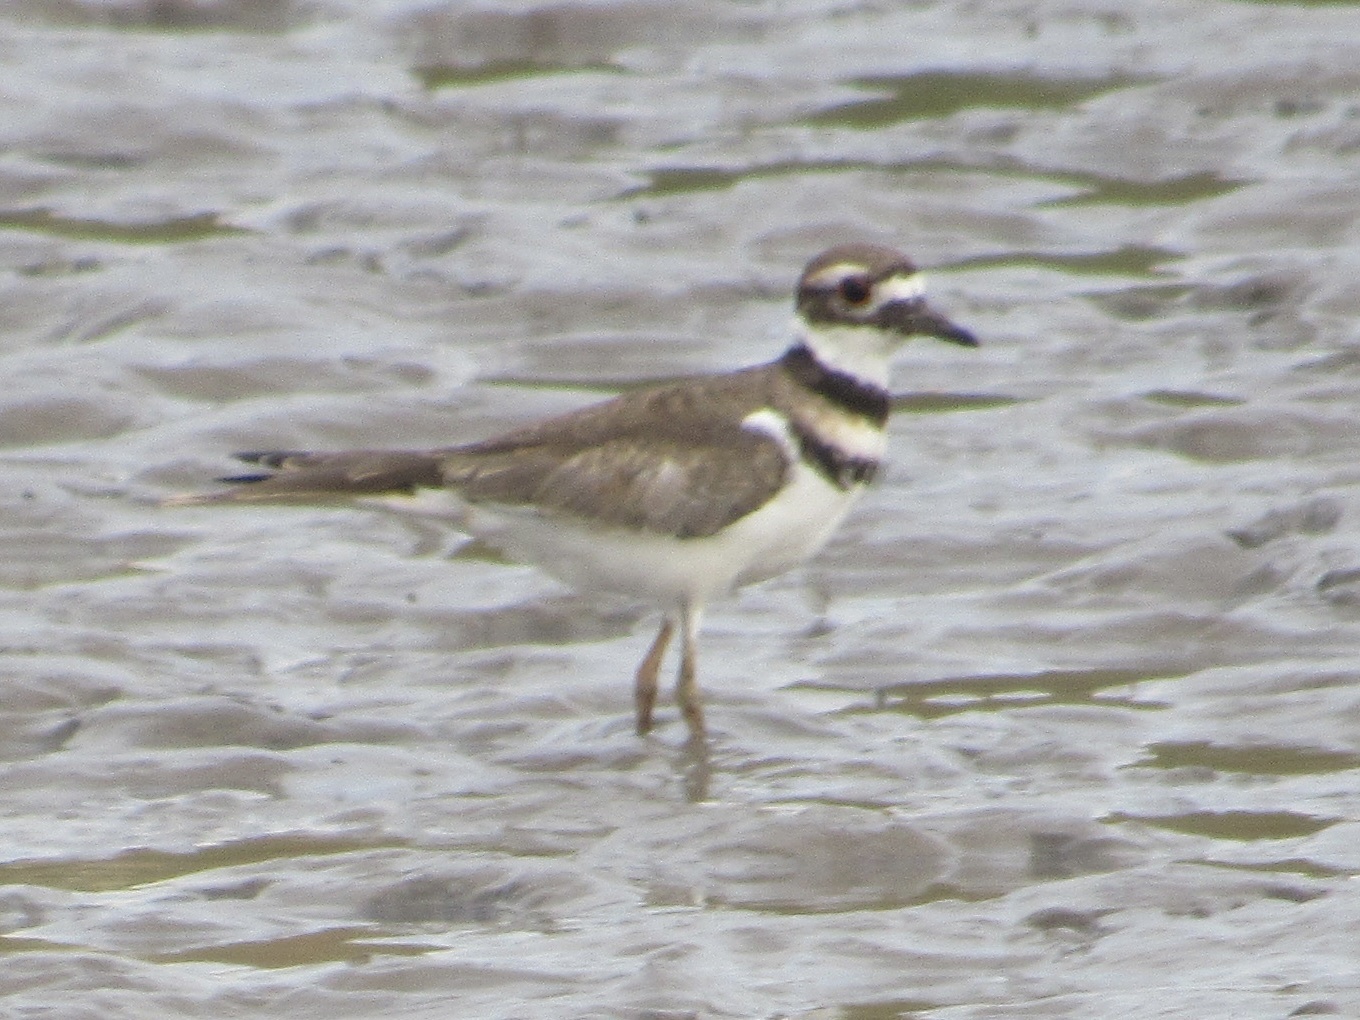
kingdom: Animalia
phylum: Chordata
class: Aves
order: Charadriiformes
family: Charadriidae
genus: Charadrius
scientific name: Charadrius vociferus
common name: Killdeer
